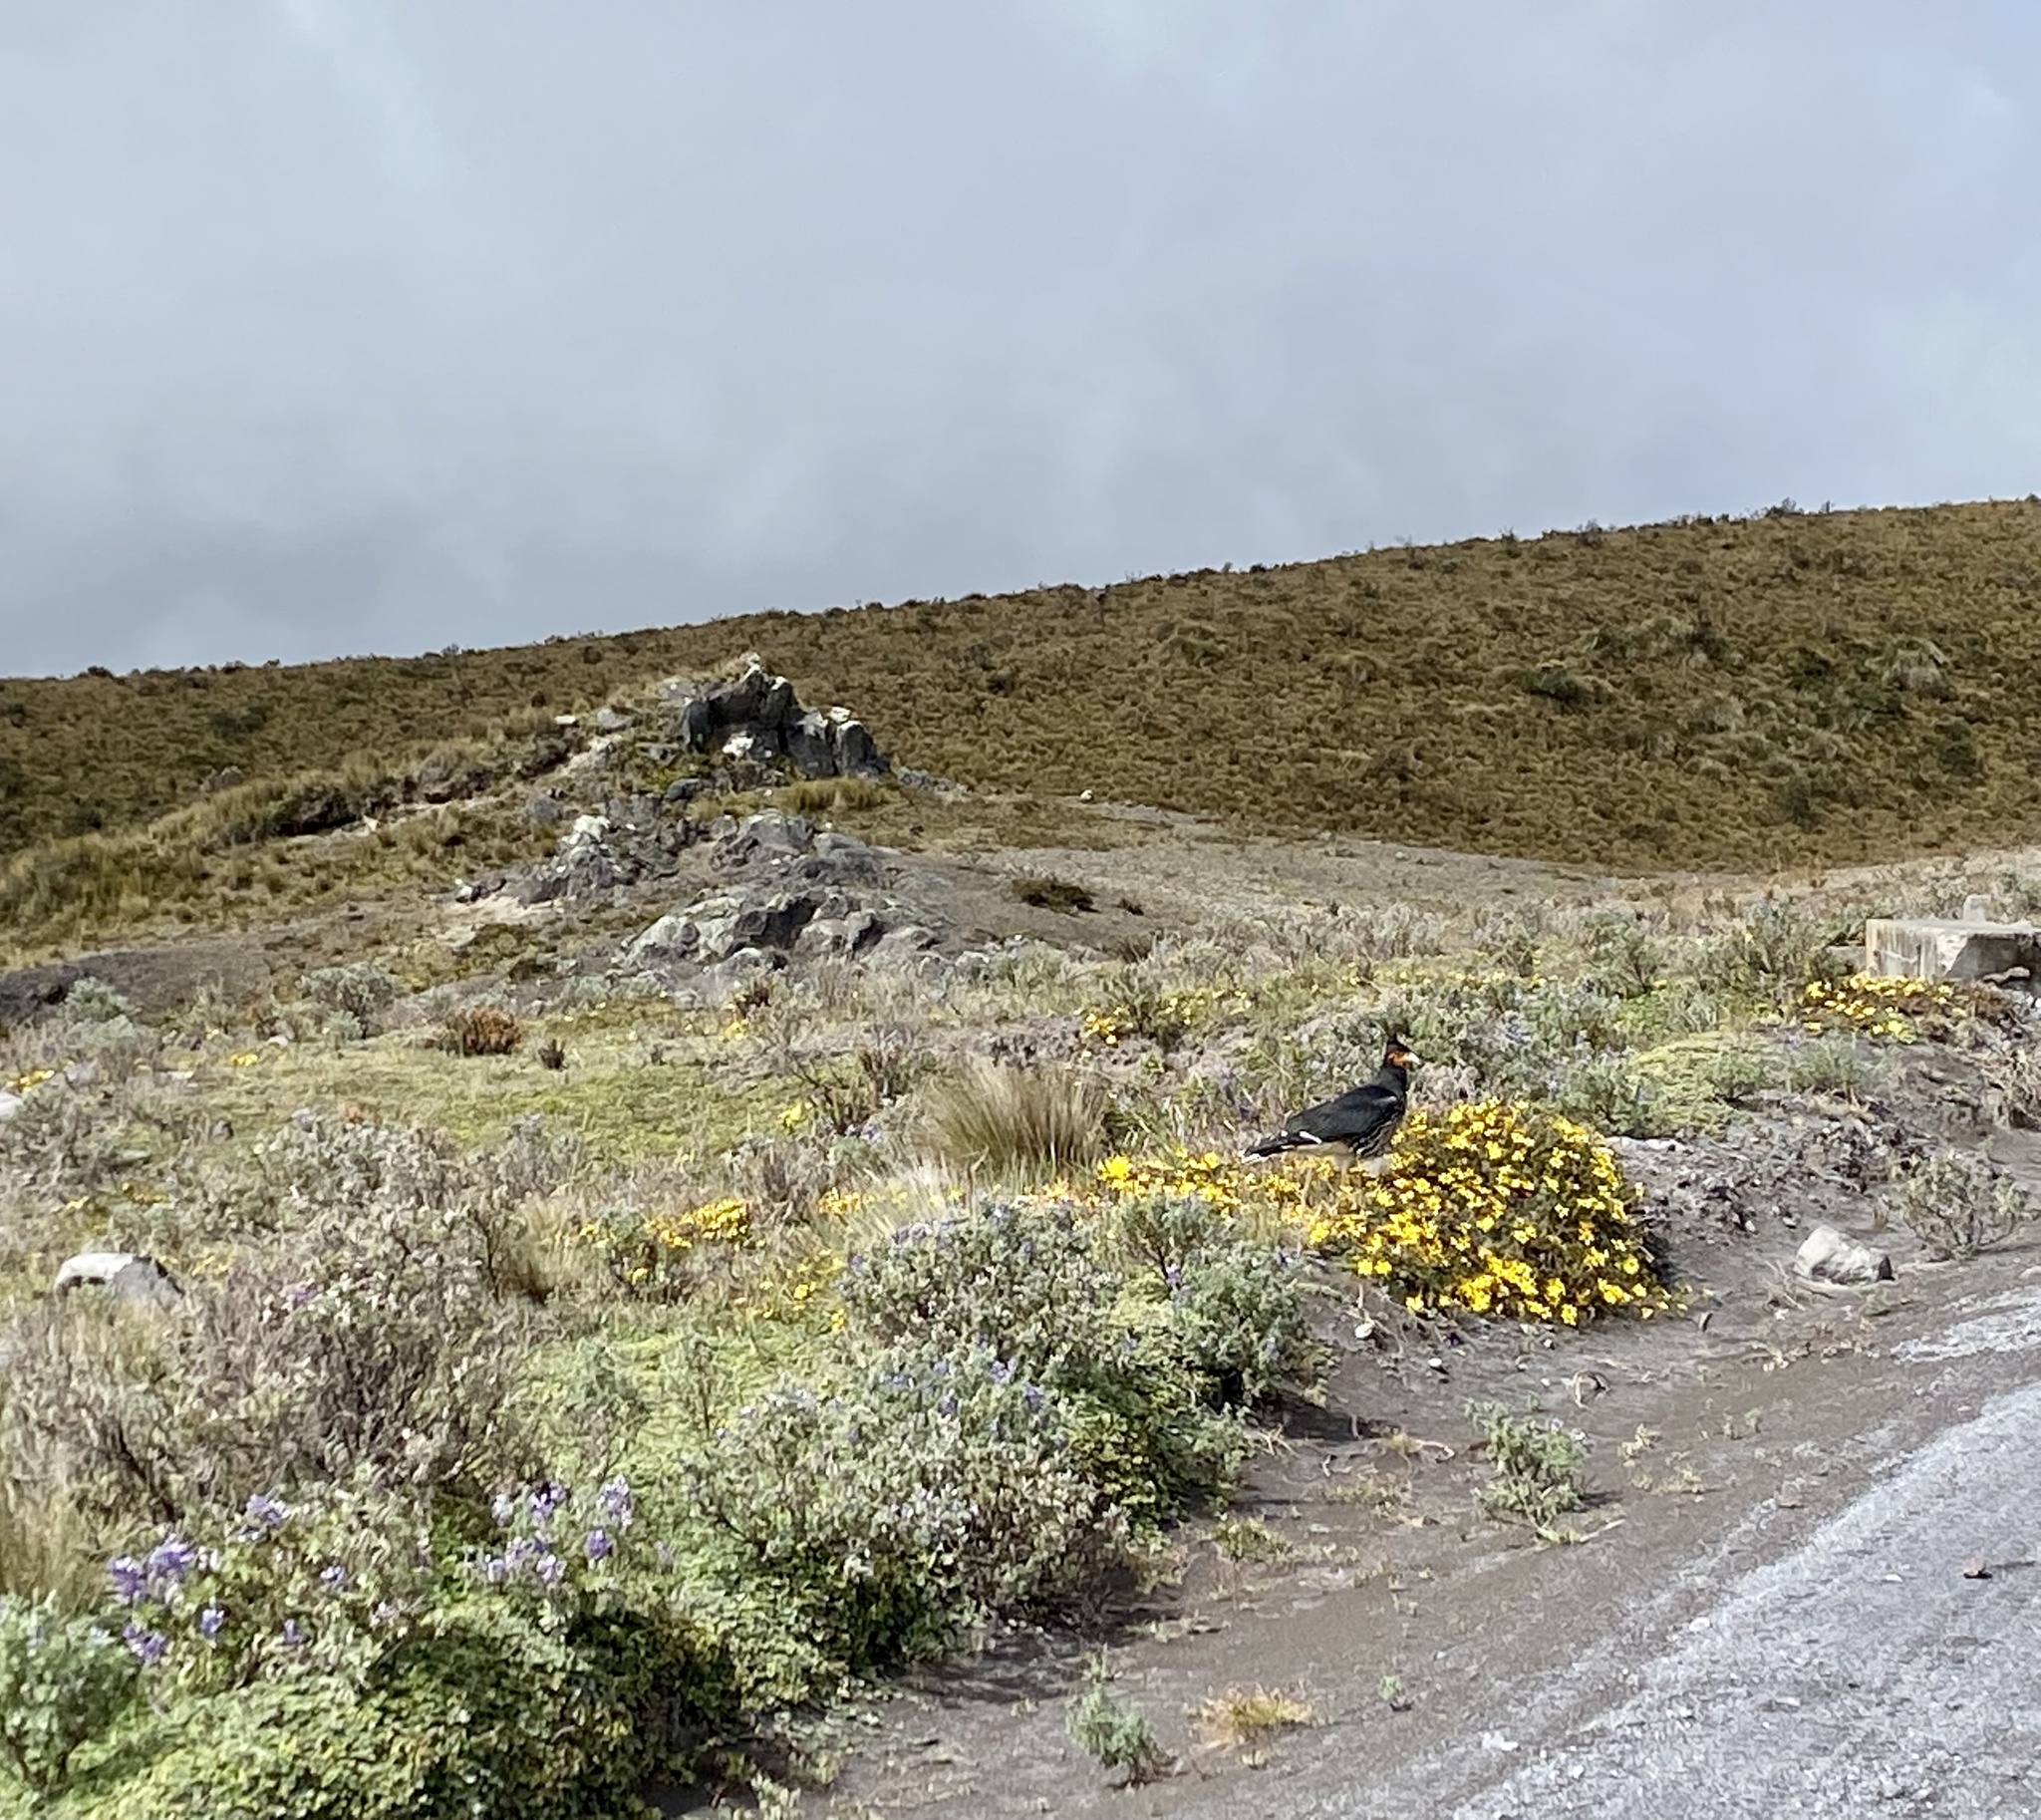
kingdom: Animalia
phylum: Chordata
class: Aves
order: Falconiformes
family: Falconidae
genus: Daptrius
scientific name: Daptrius
